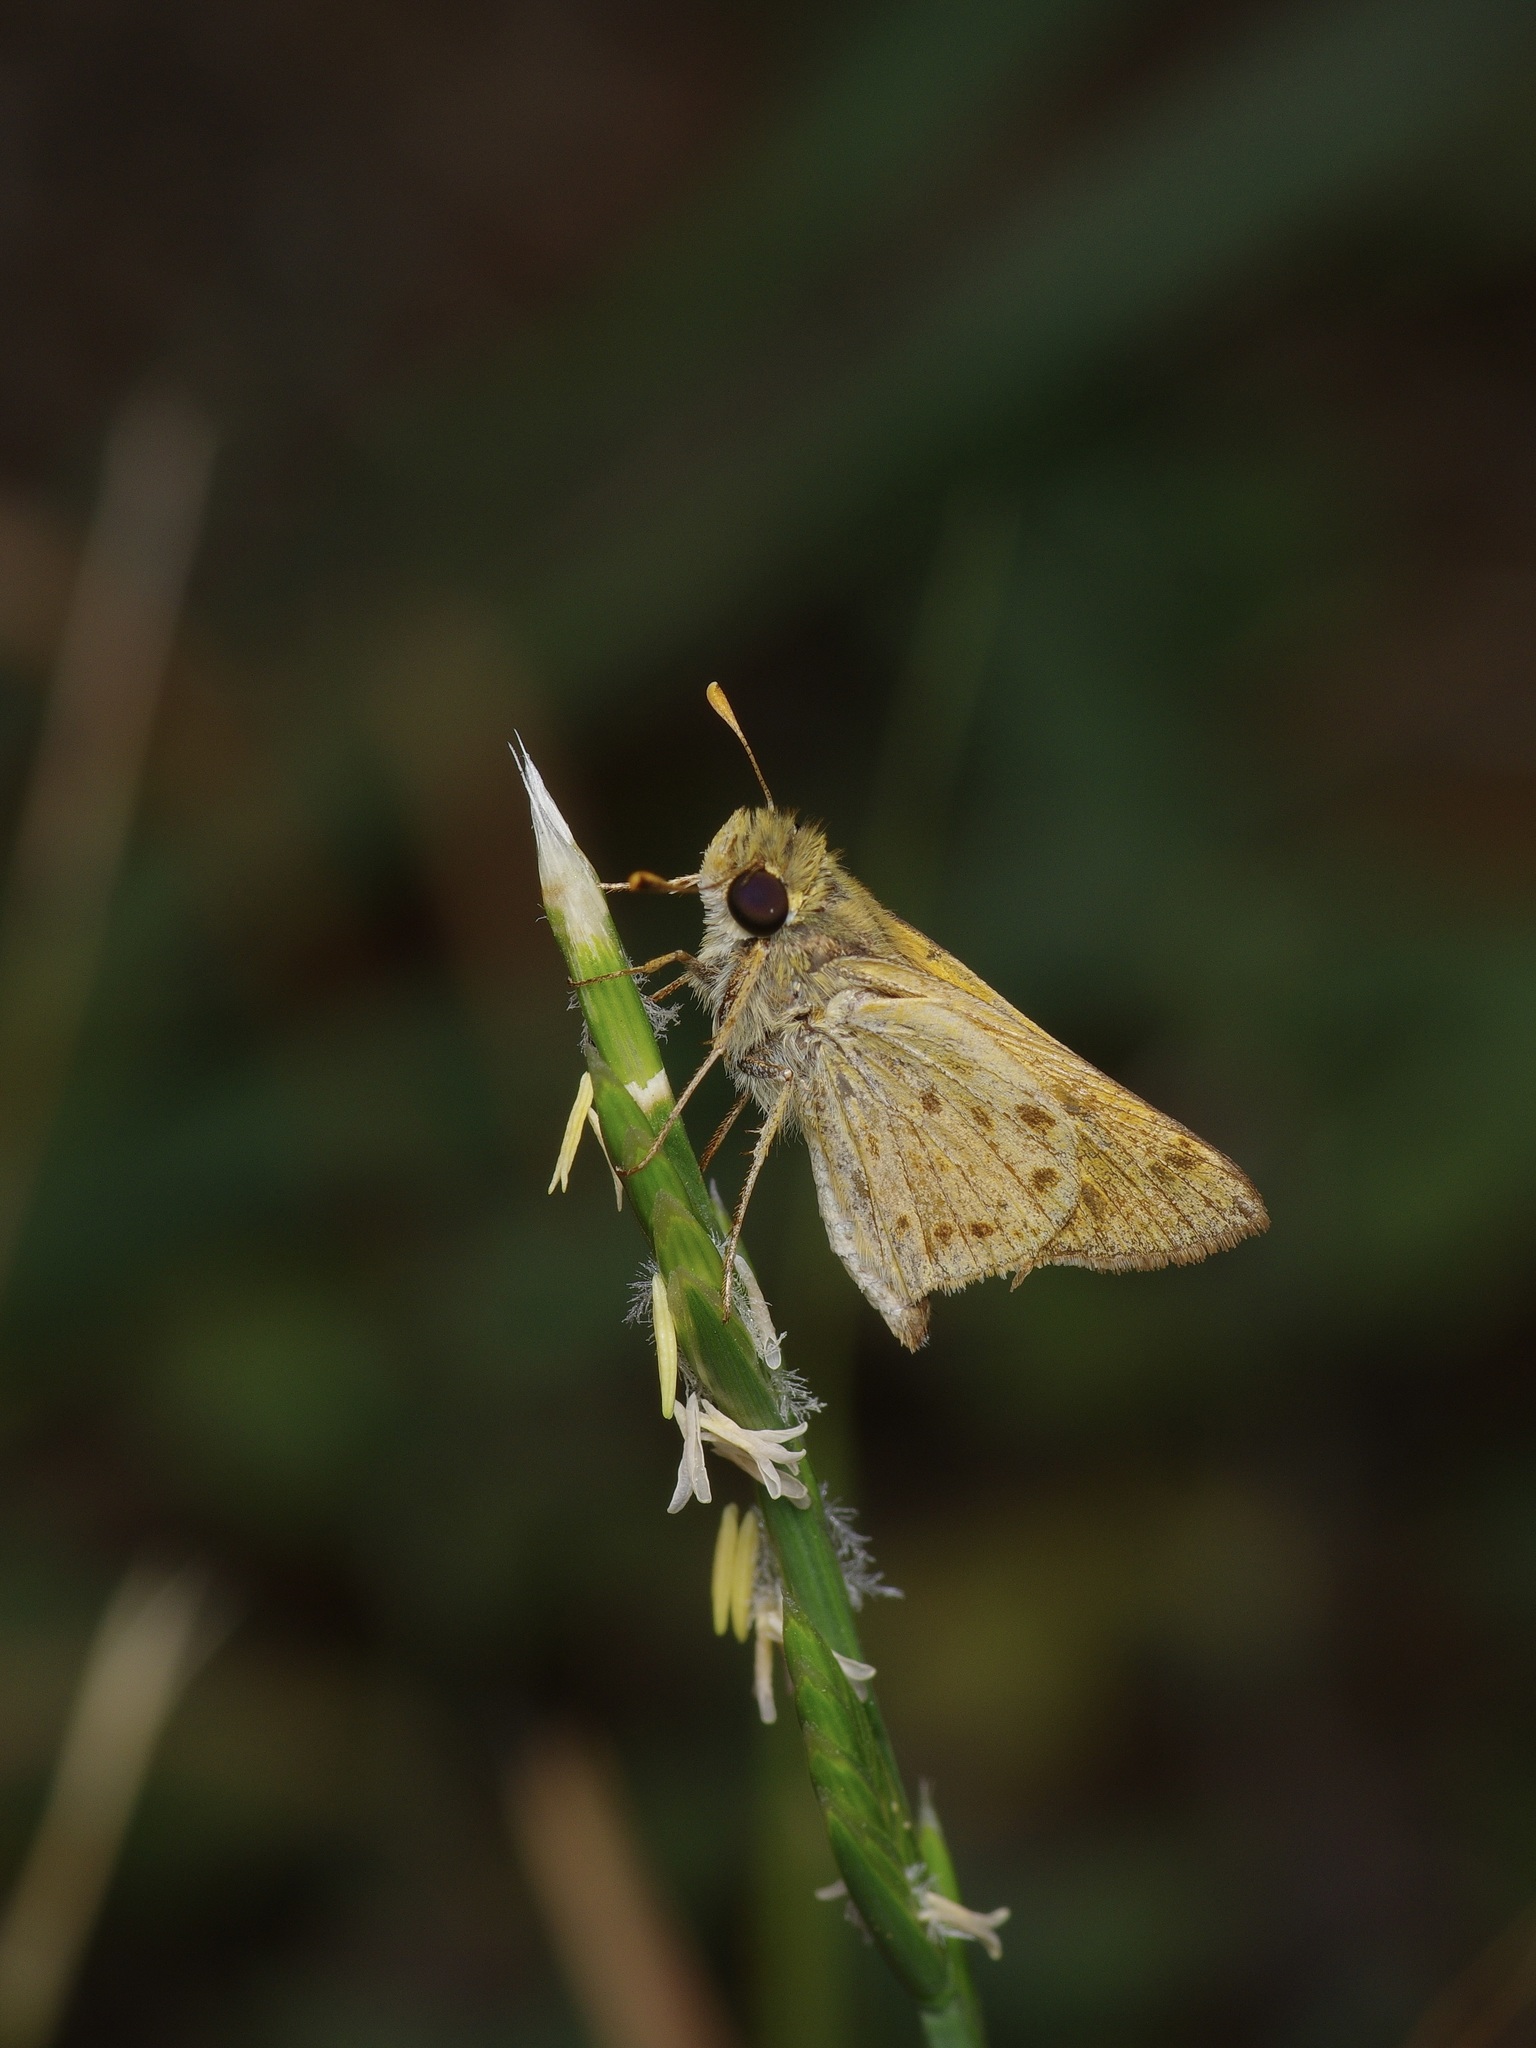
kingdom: Animalia
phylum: Arthropoda
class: Insecta
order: Lepidoptera
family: Hesperiidae
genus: Hylephila
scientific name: Hylephila phyleus
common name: Fiery skipper
